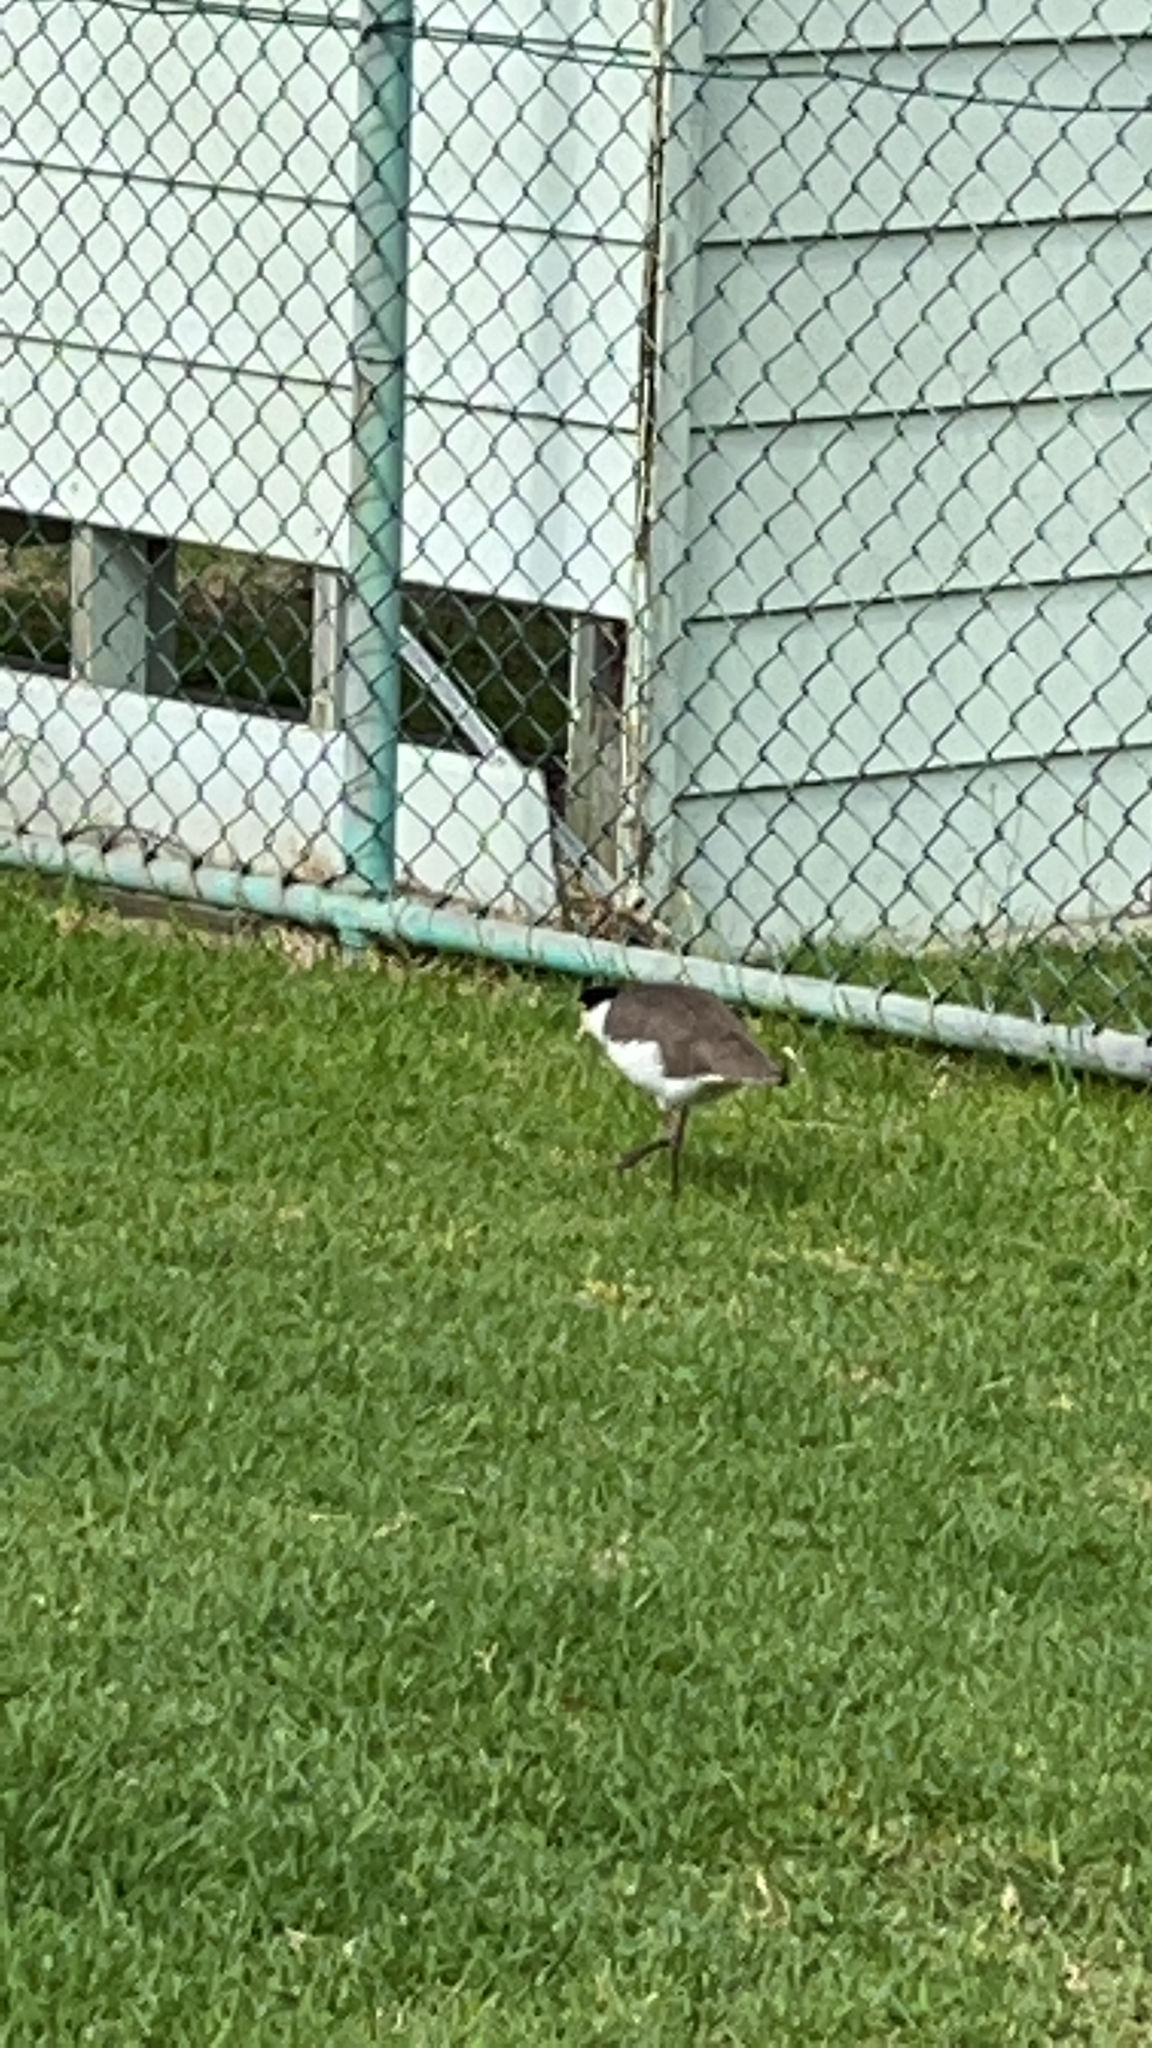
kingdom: Animalia
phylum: Chordata
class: Aves
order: Charadriiformes
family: Charadriidae
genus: Vanellus
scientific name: Vanellus miles
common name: Masked lapwing
